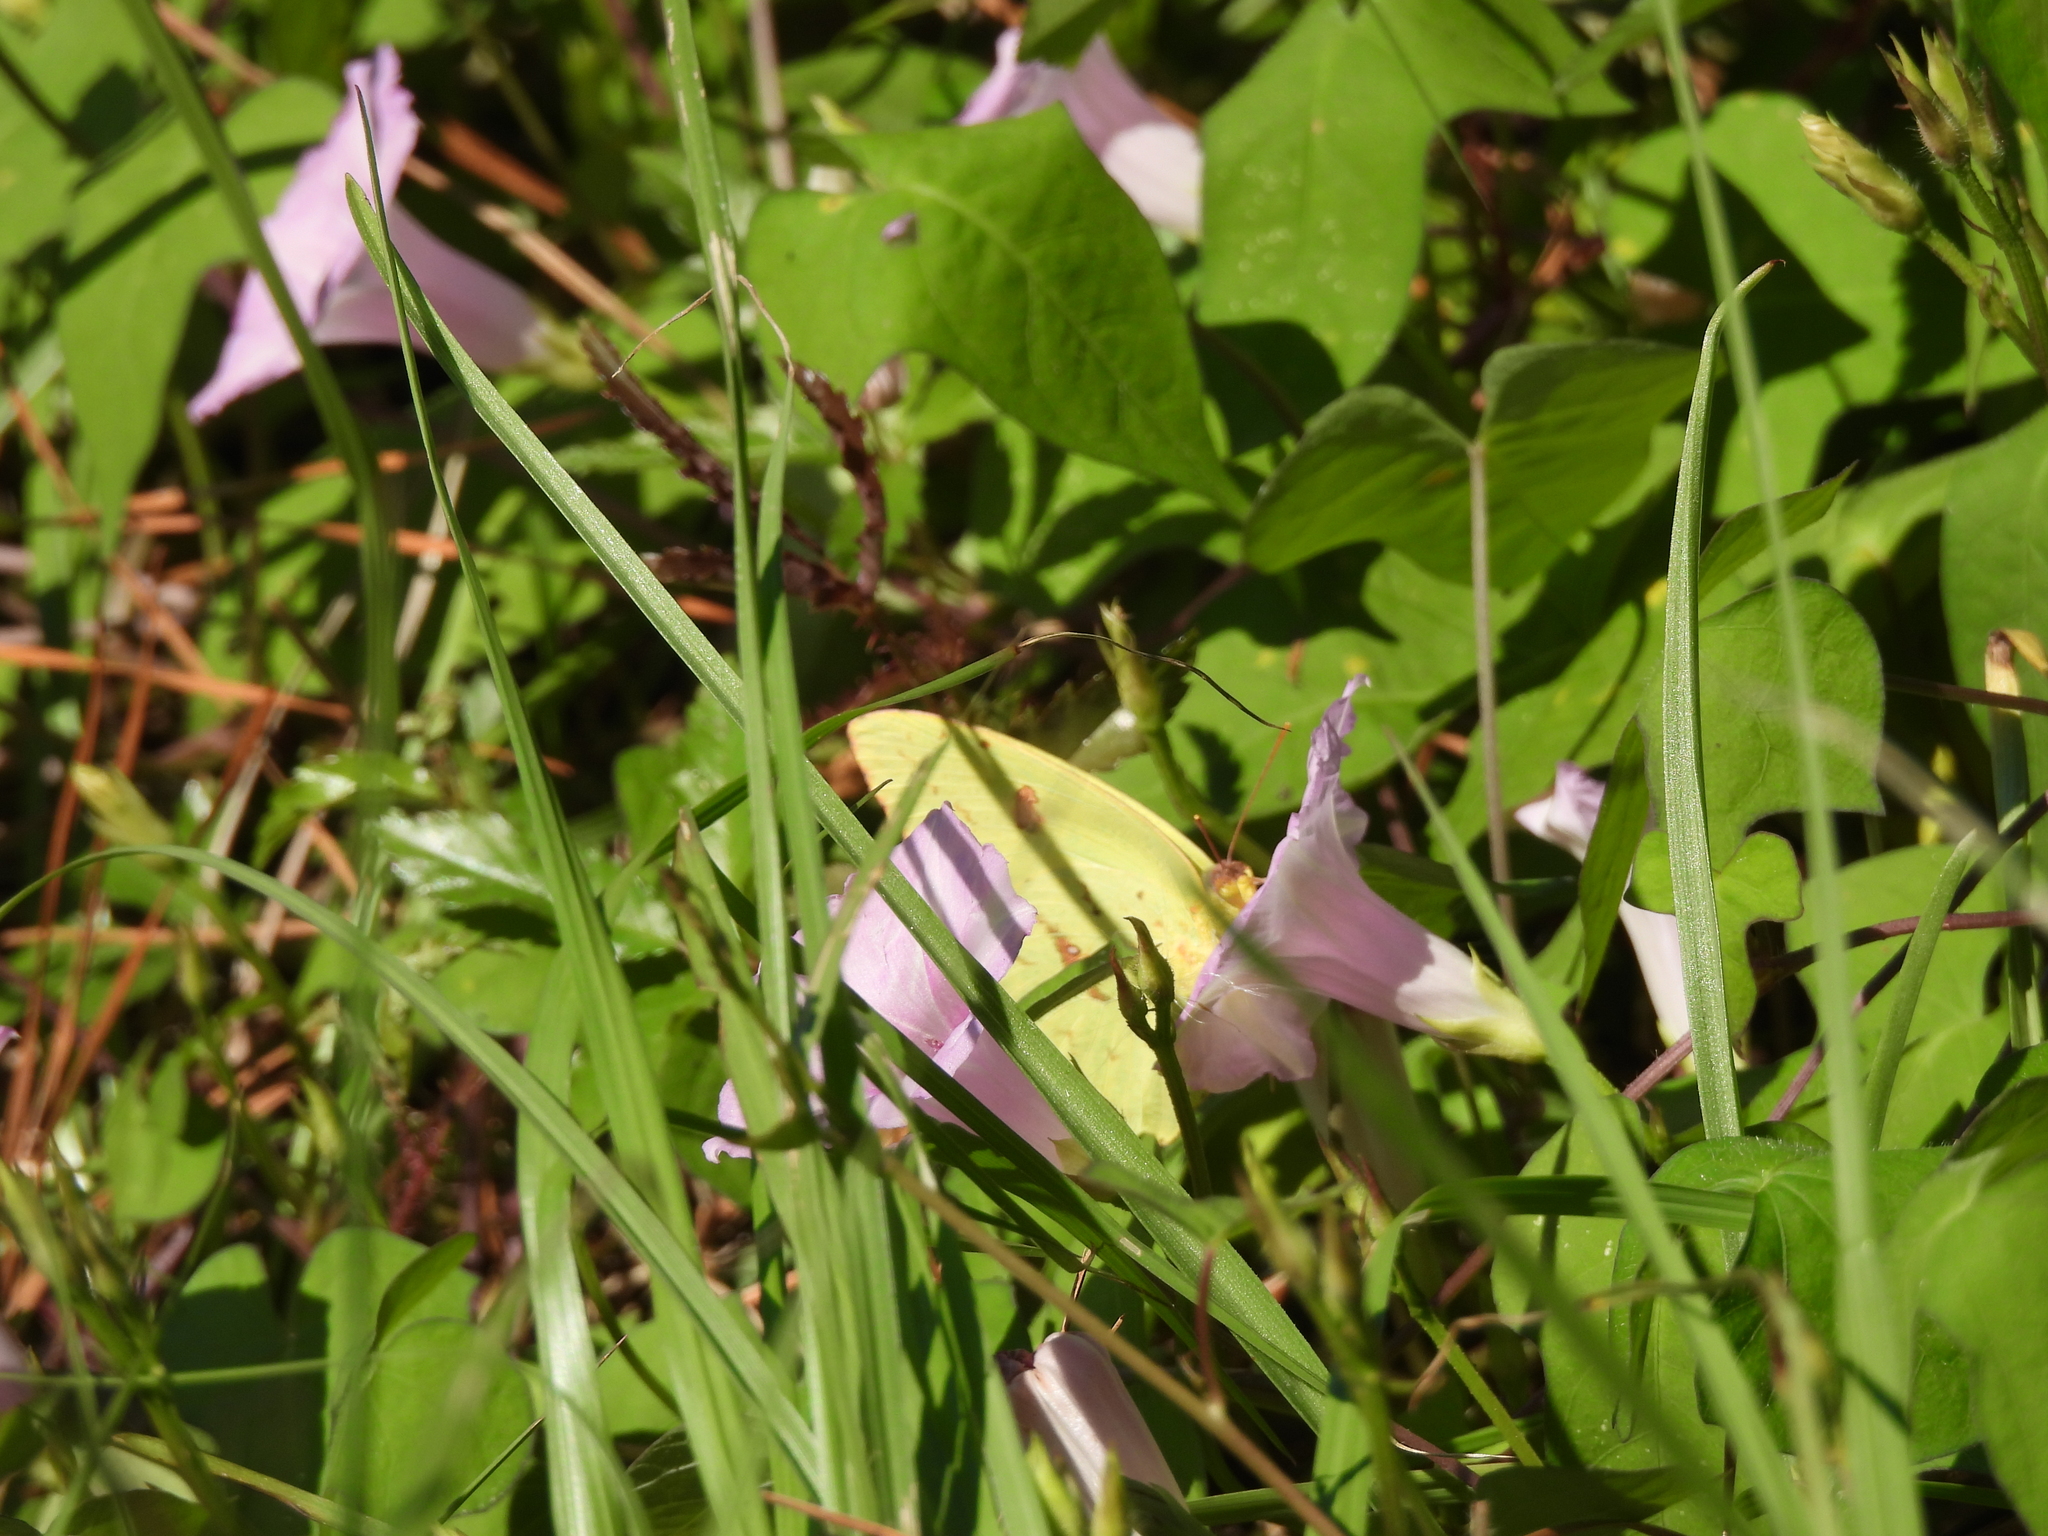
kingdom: Animalia
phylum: Arthropoda
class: Insecta
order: Lepidoptera
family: Pieridae
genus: Phoebis
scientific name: Phoebis sennae
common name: Cloudless sulphur
